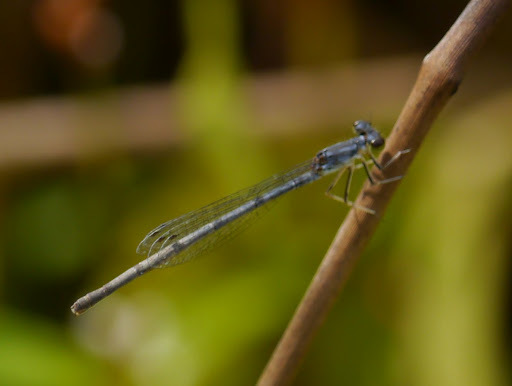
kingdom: Animalia
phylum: Arthropoda
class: Insecta
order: Odonata
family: Coenagrionidae
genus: Ischnura
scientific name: Ischnura posita
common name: Fragile forktail
